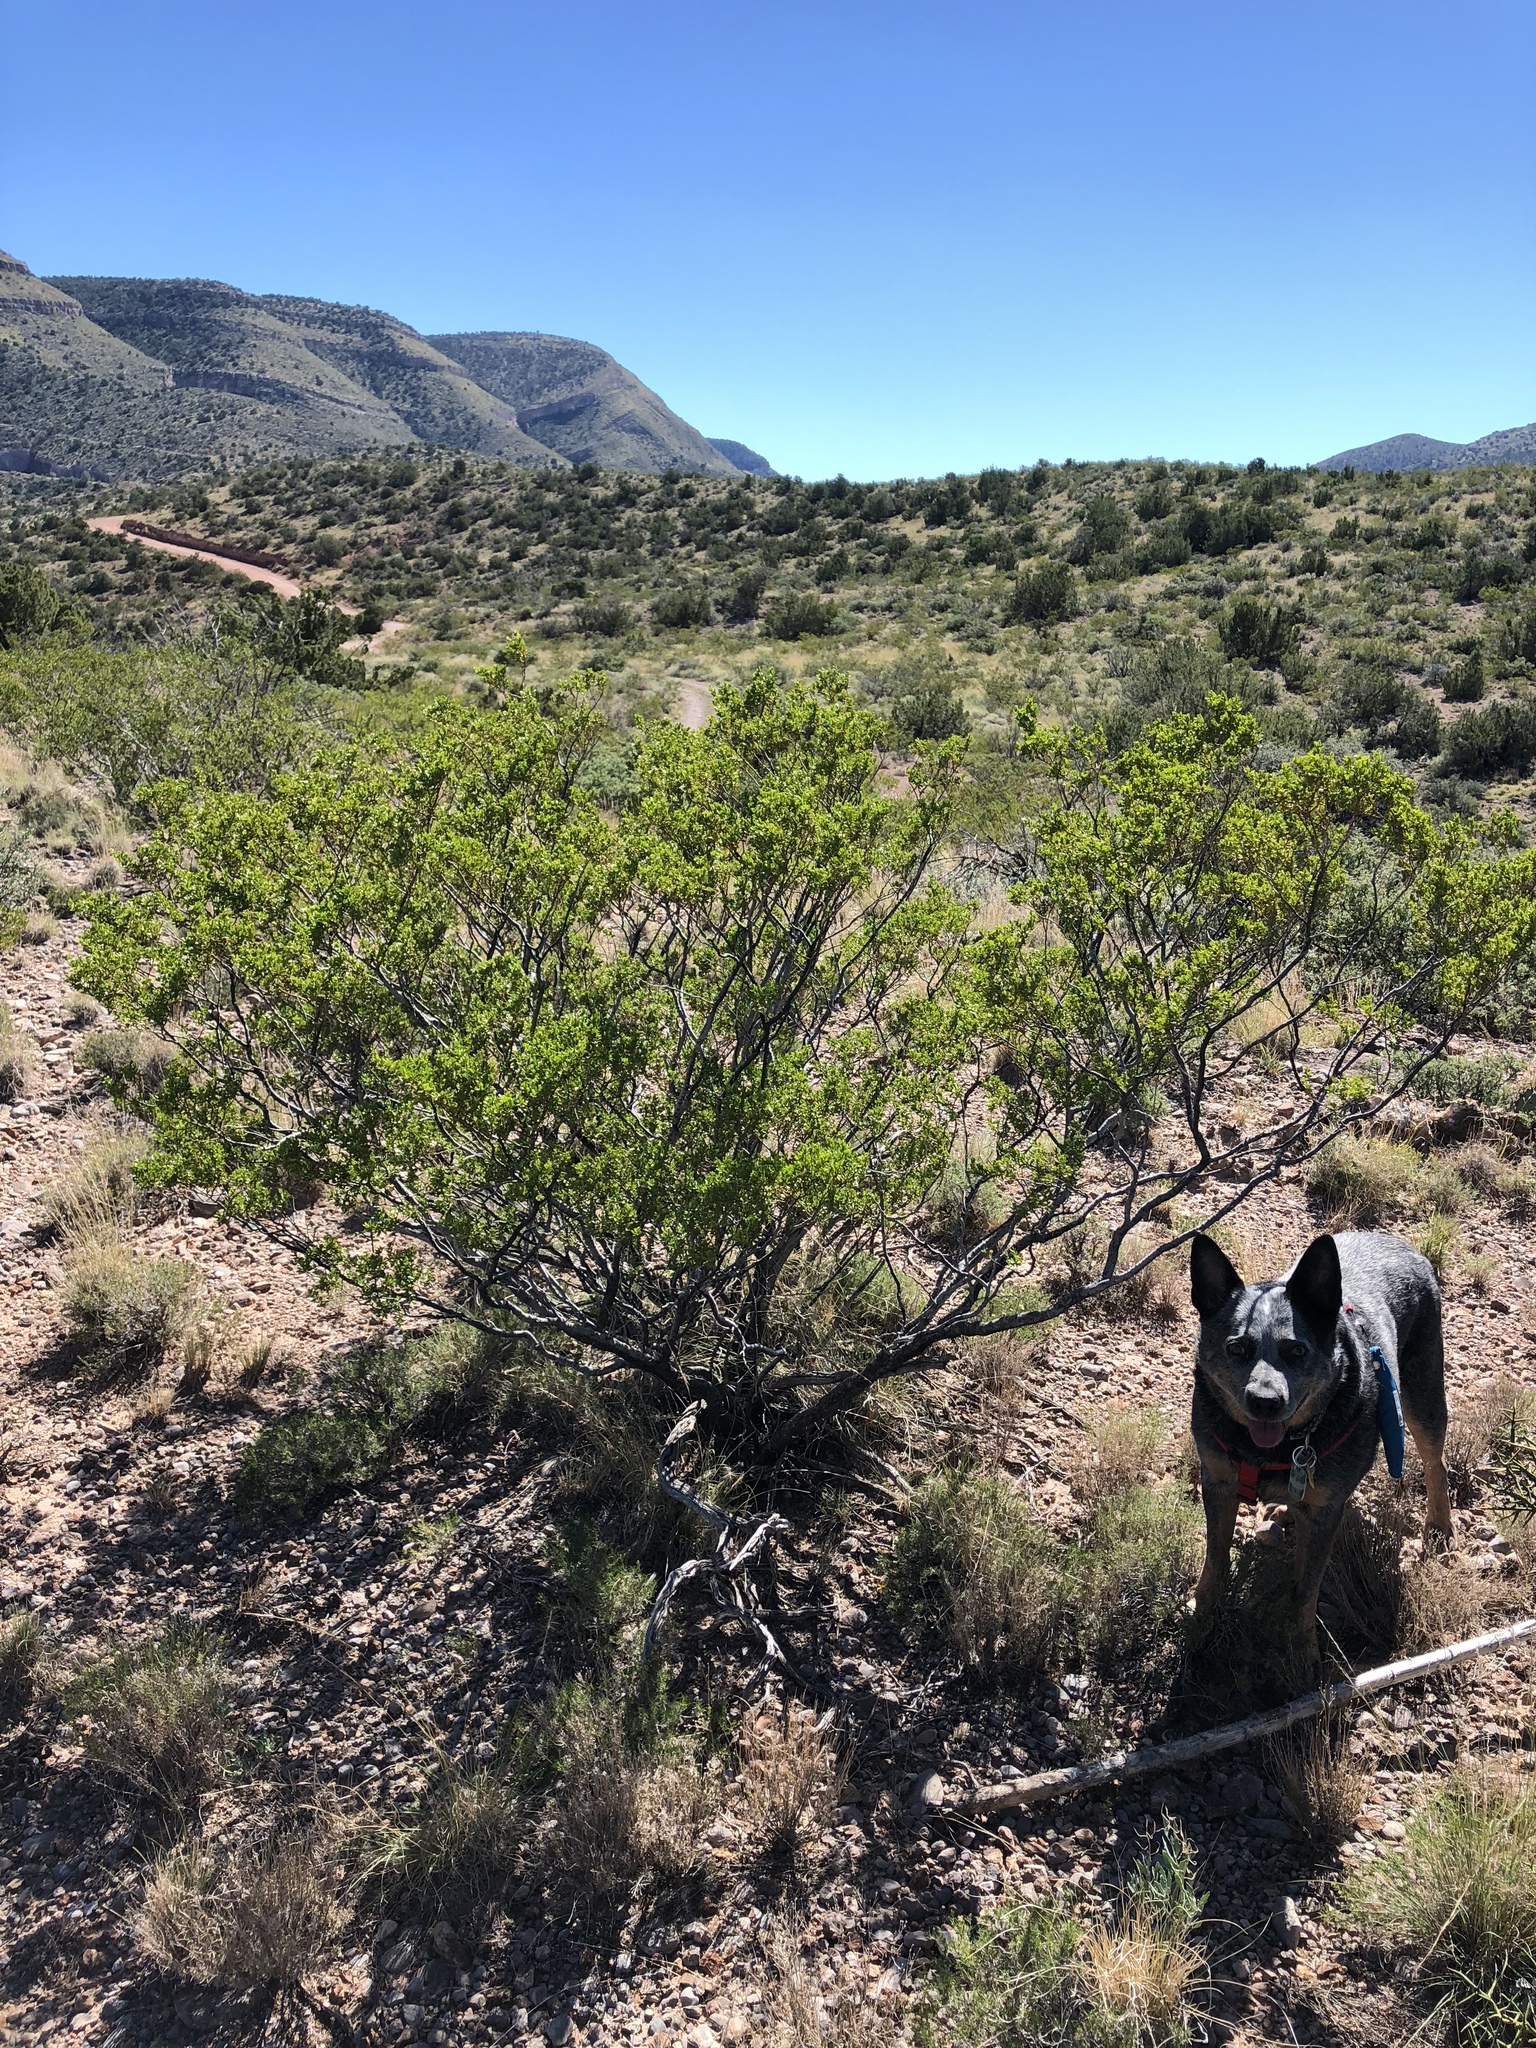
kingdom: Plantae
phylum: Tracheophyta
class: Magnoliopsida
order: Zygophyllales
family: Zygophyllaceae
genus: Larrea
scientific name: Larrea tridentata
